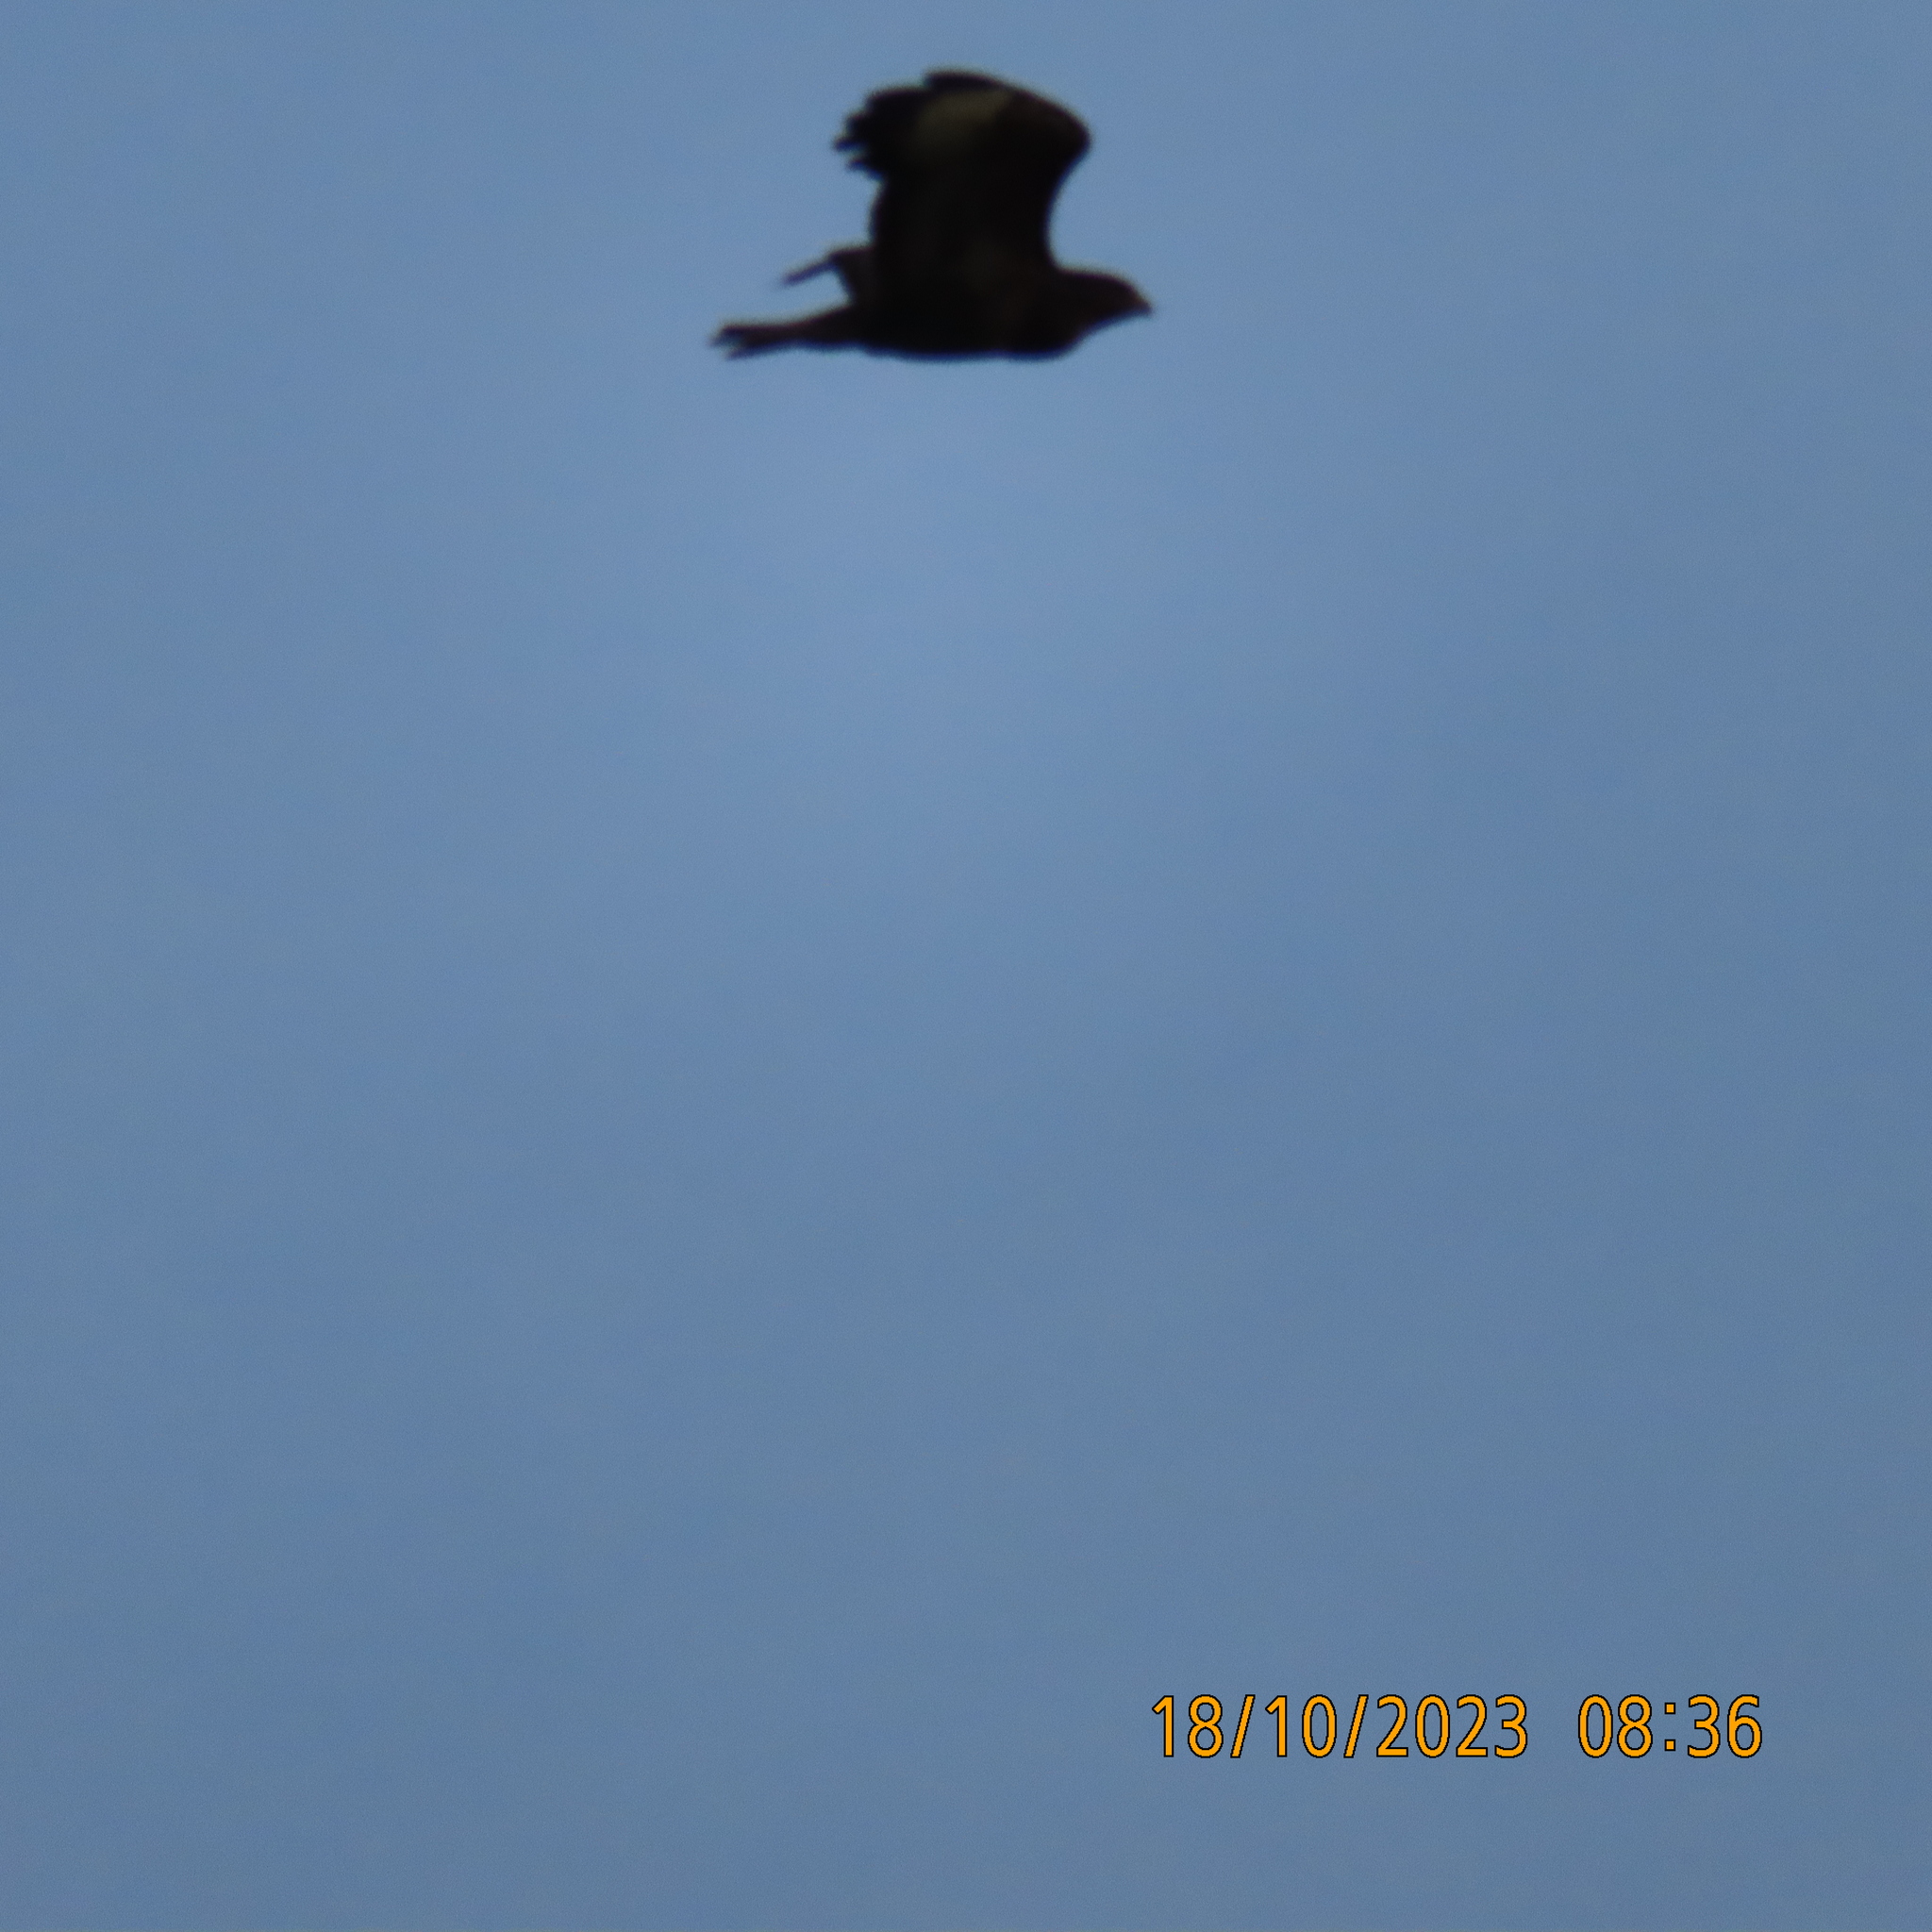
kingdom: Animalia
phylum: Chordata
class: Aves
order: Accipitriformes
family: Accipitridae
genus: Buteo
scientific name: Buteo buteo
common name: Common buzzard
